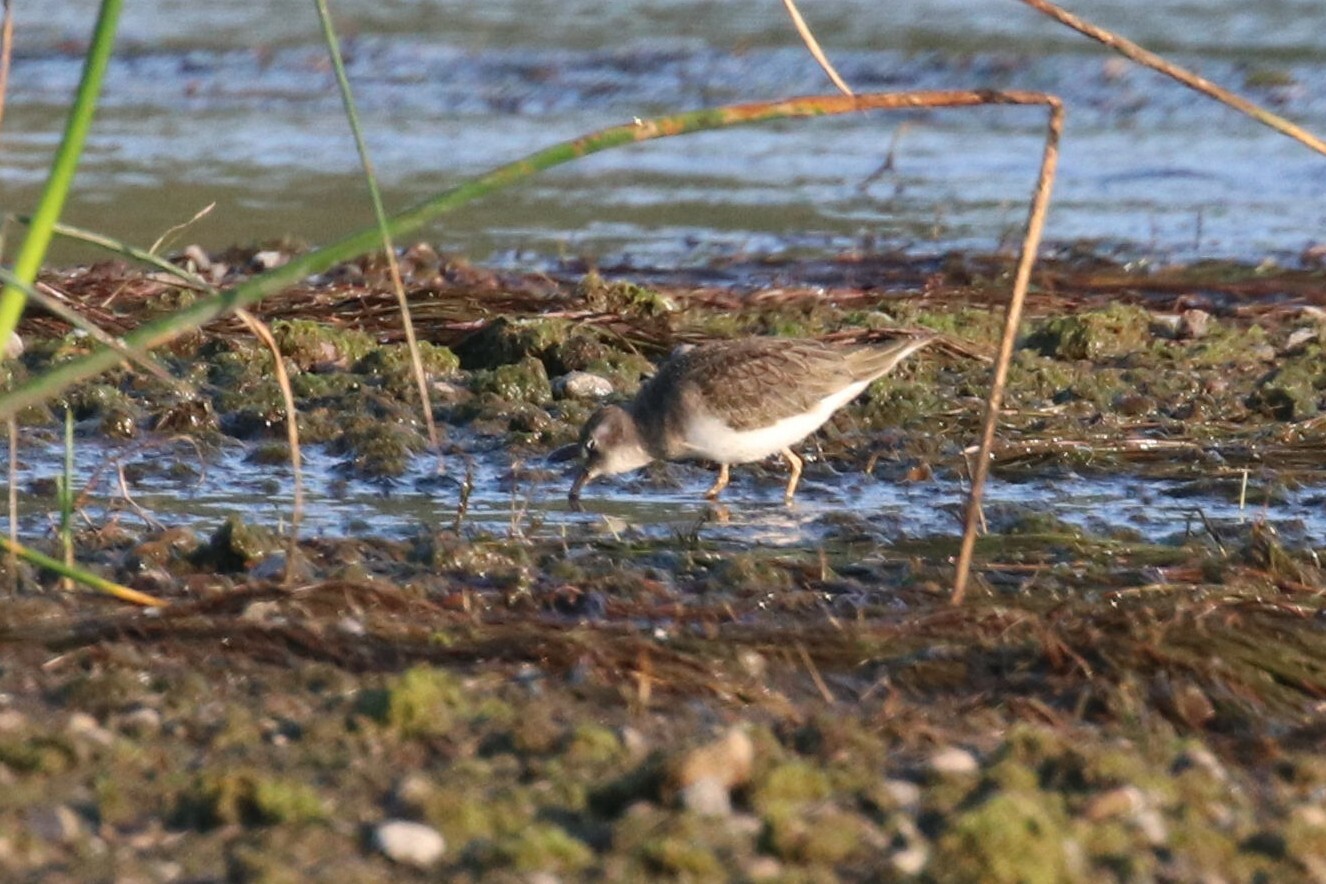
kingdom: Animalia
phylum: Chordata
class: Aves
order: Charadriiformes
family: Scolopacidae
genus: Calidris
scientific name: Calidris temminckii
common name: Temminck's stint
